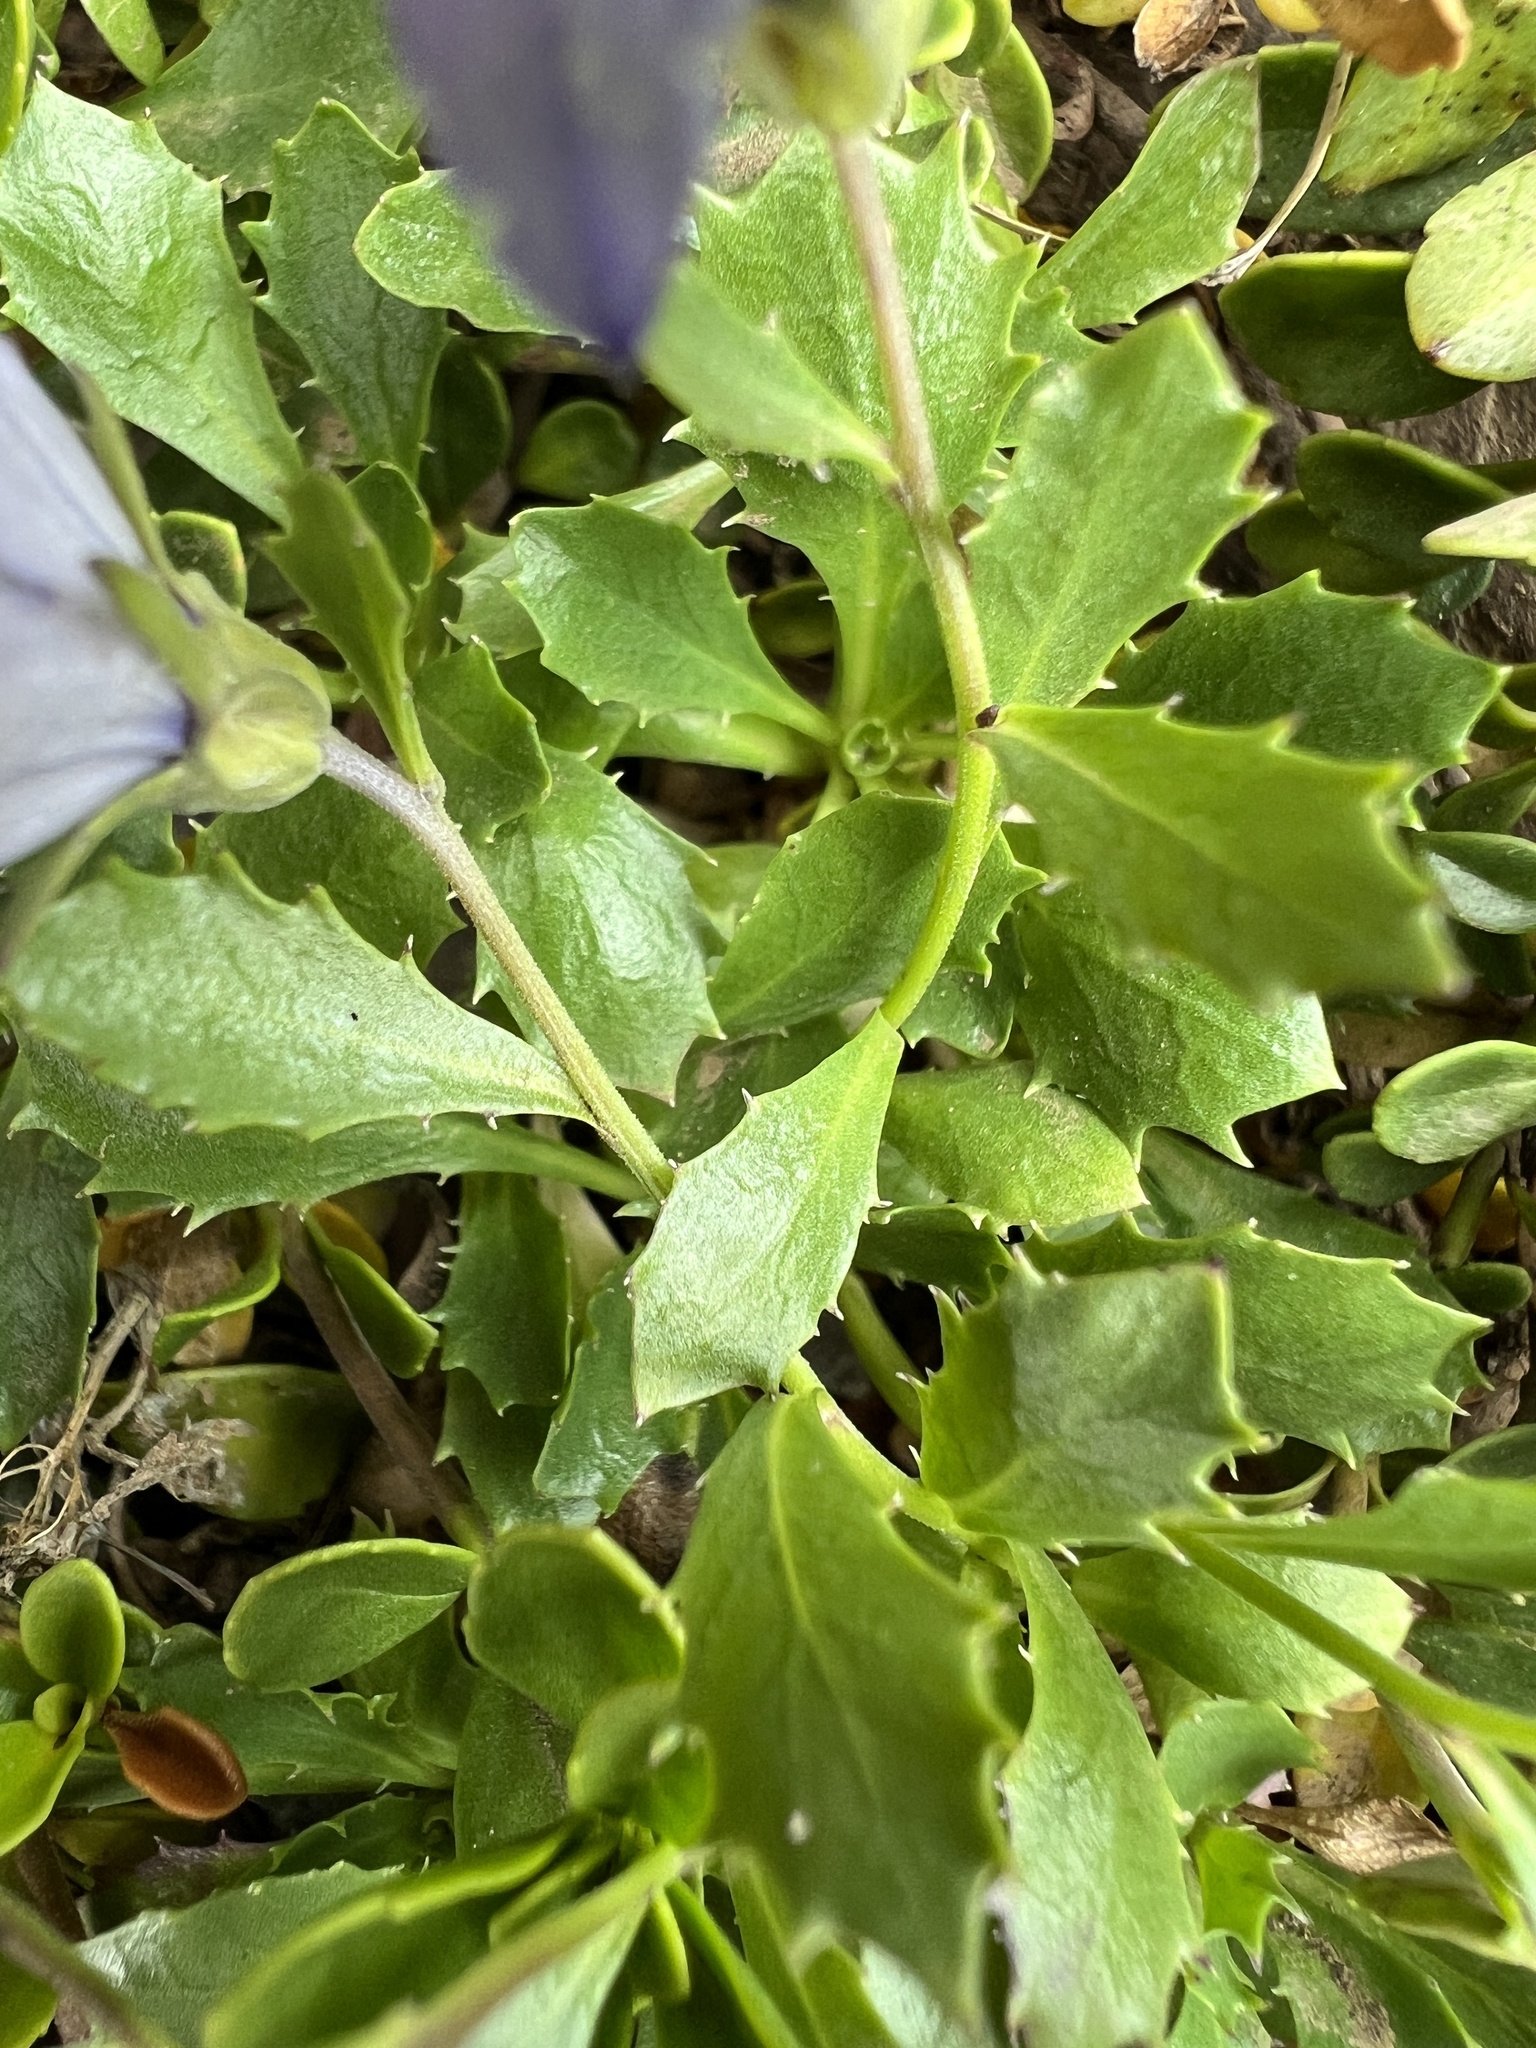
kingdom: Plantae
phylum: Tracheophyta
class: Magnoliopsida
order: Asterales
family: Campanulaceae
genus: Campanula
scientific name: Campanula piperi
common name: Olympic bellflower
